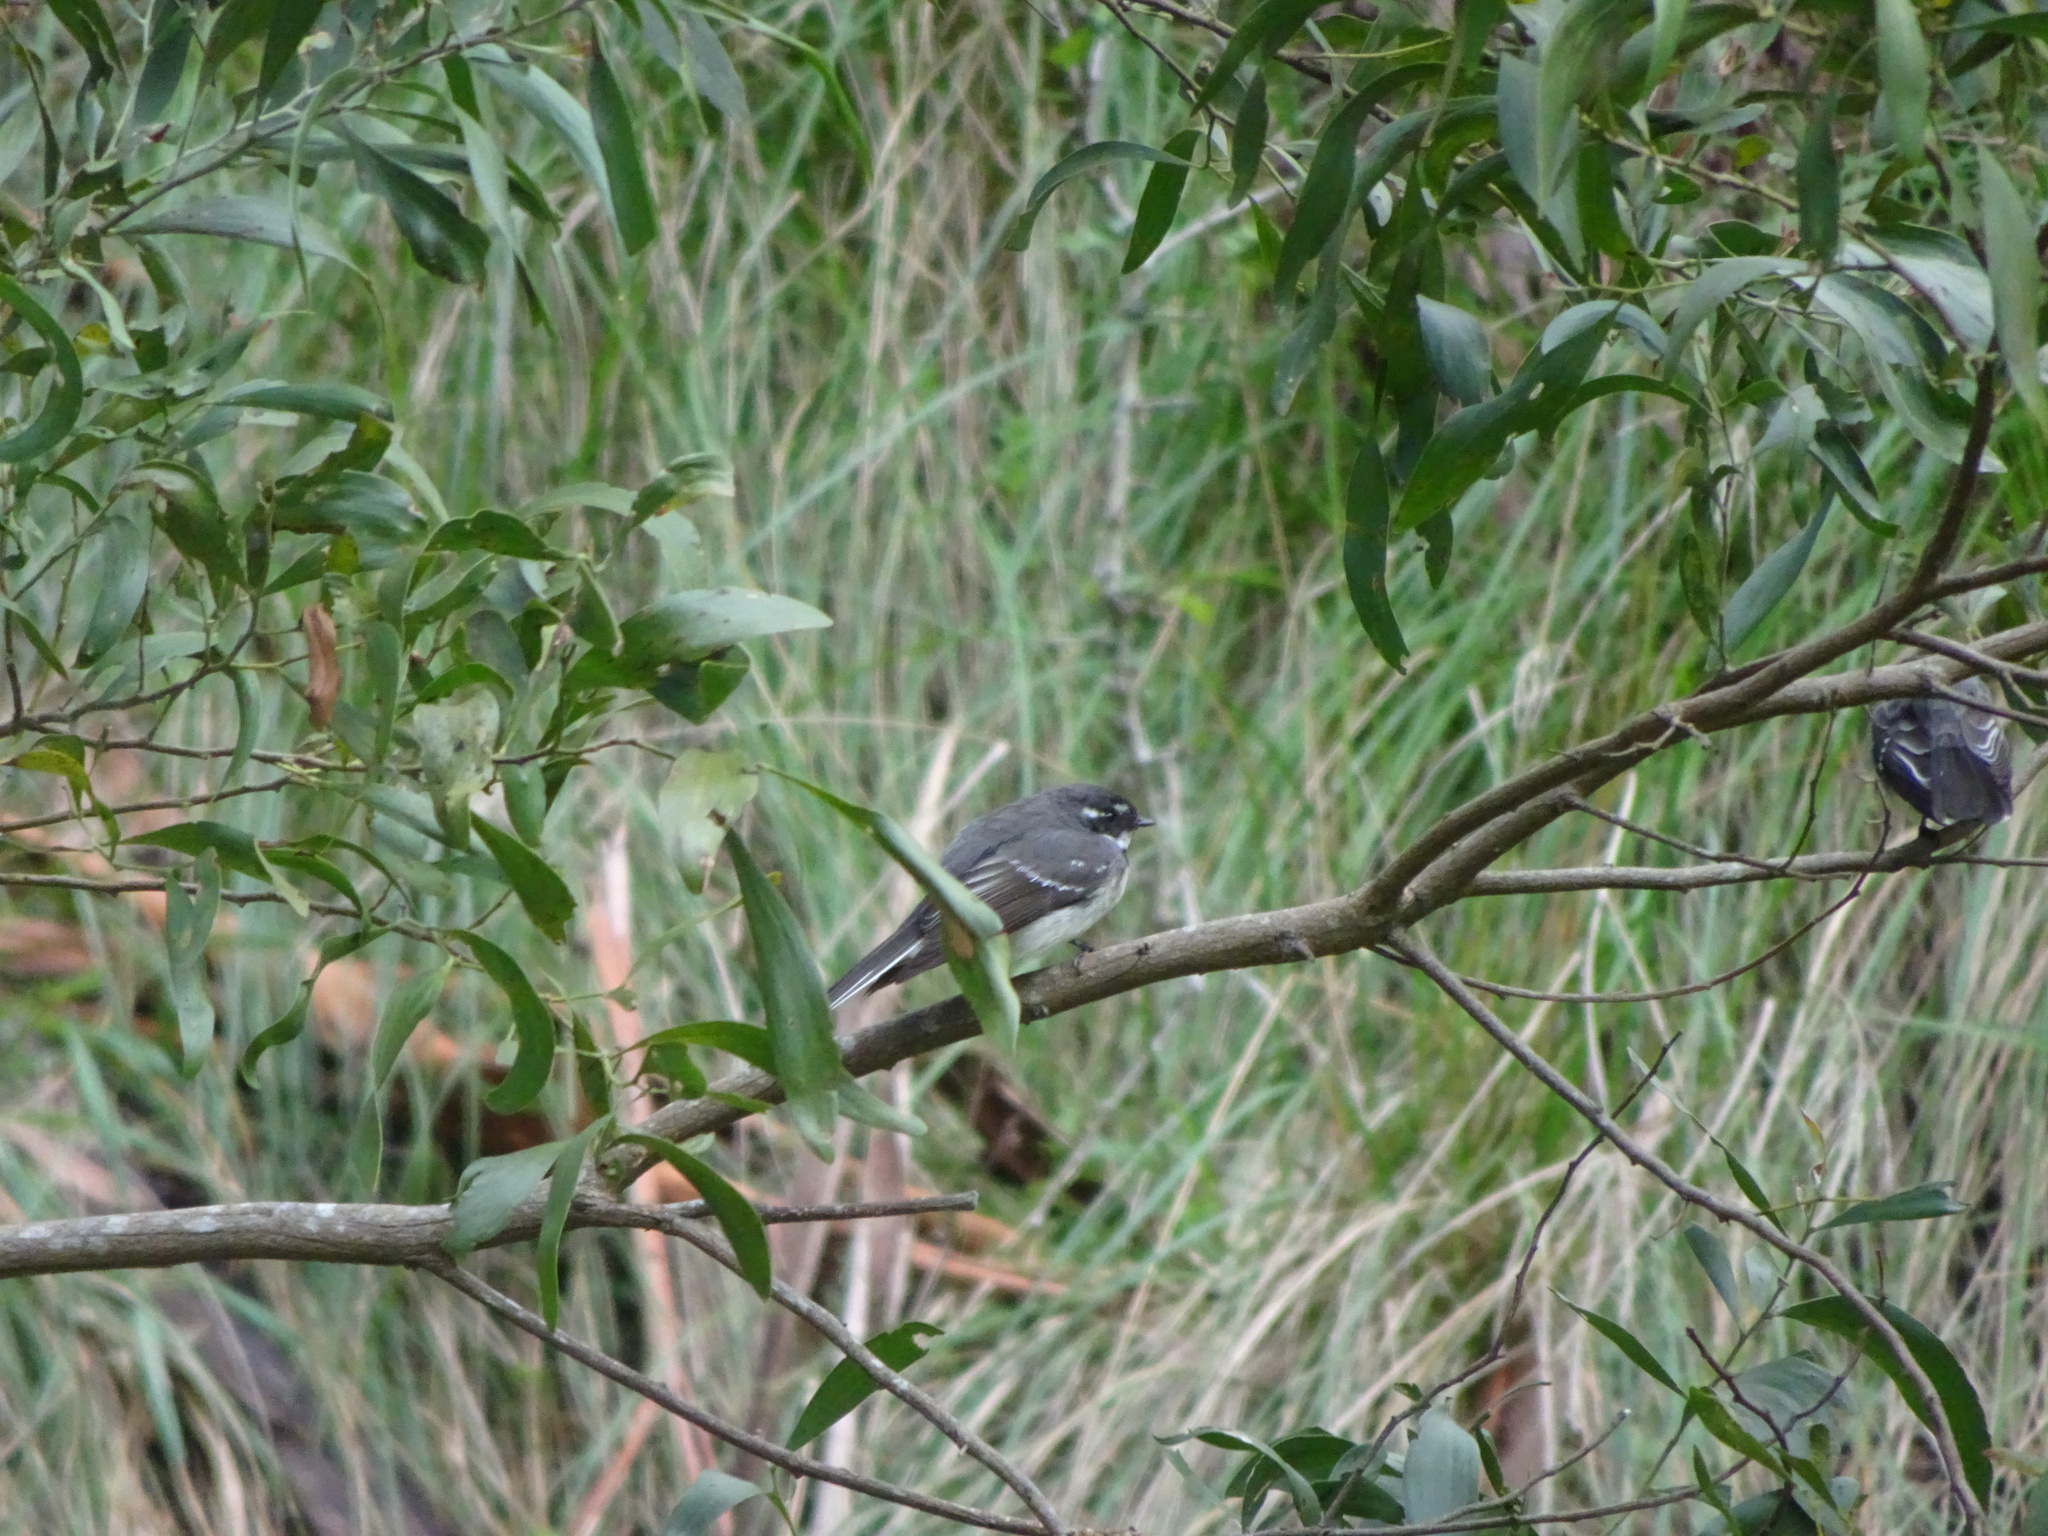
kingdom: Animalia
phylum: Chordata
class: Aves
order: Passeriformes
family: Rhipiduridae
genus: Rhipidura
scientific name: Rhipidura albiscapa
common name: Grey fantail
